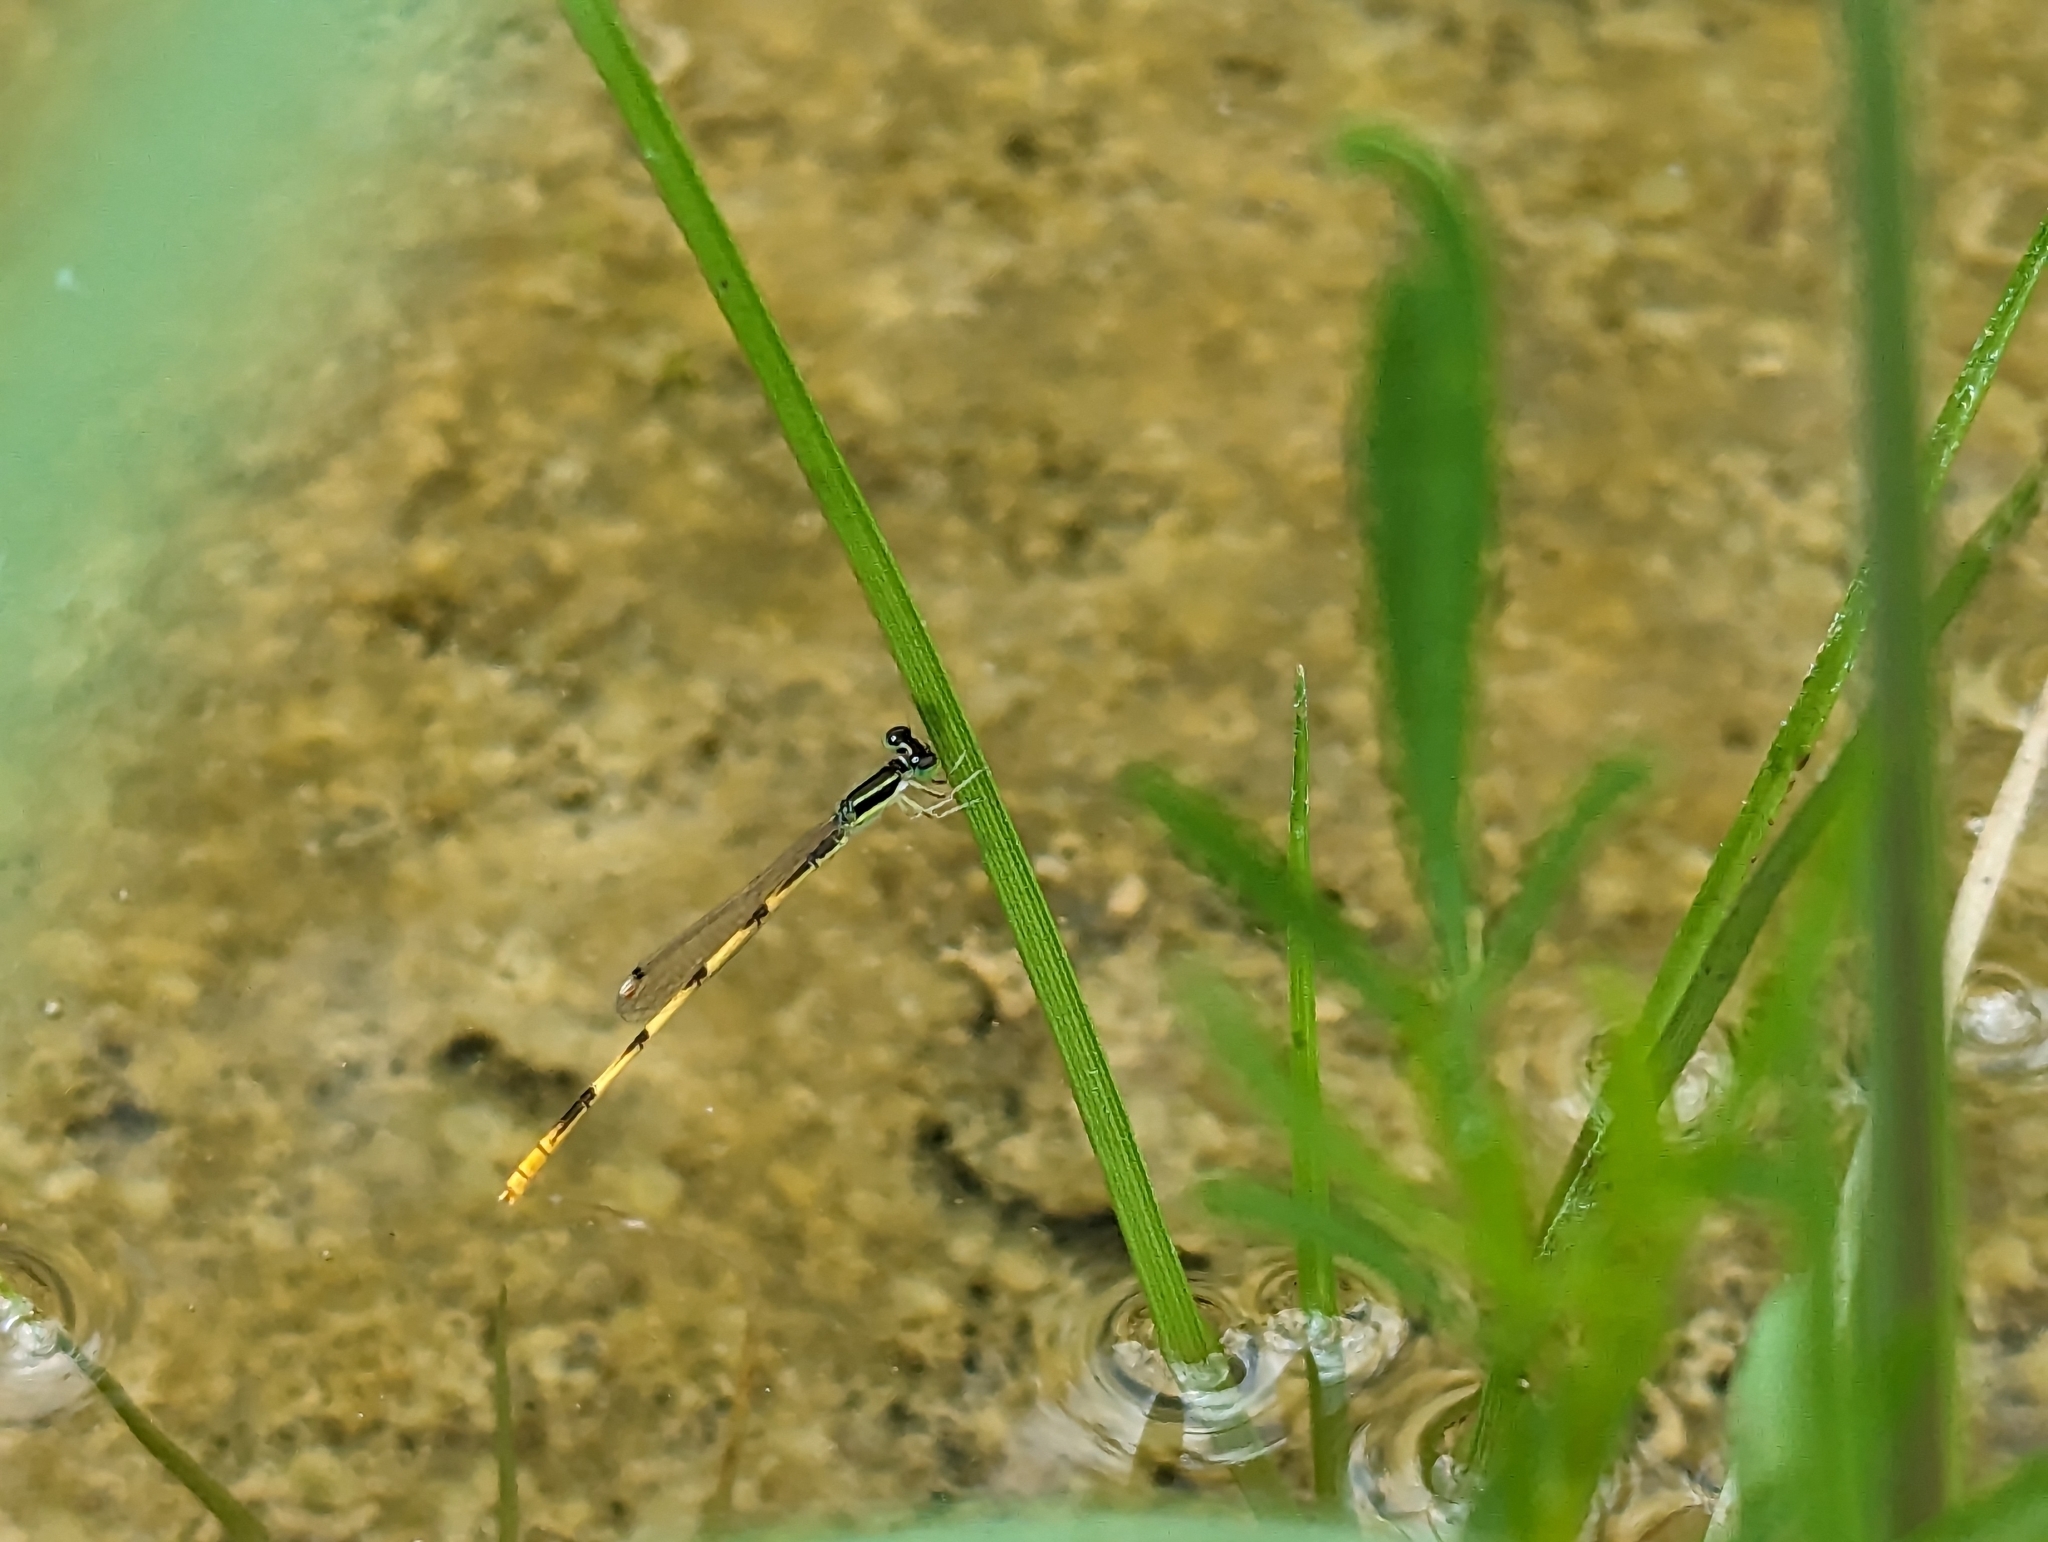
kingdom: Animalia
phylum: Arthropoda
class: Insecta
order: Odonata
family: Coenagrionidae
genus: Ischnura
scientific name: Ischnura hastata
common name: Citrine forktail
